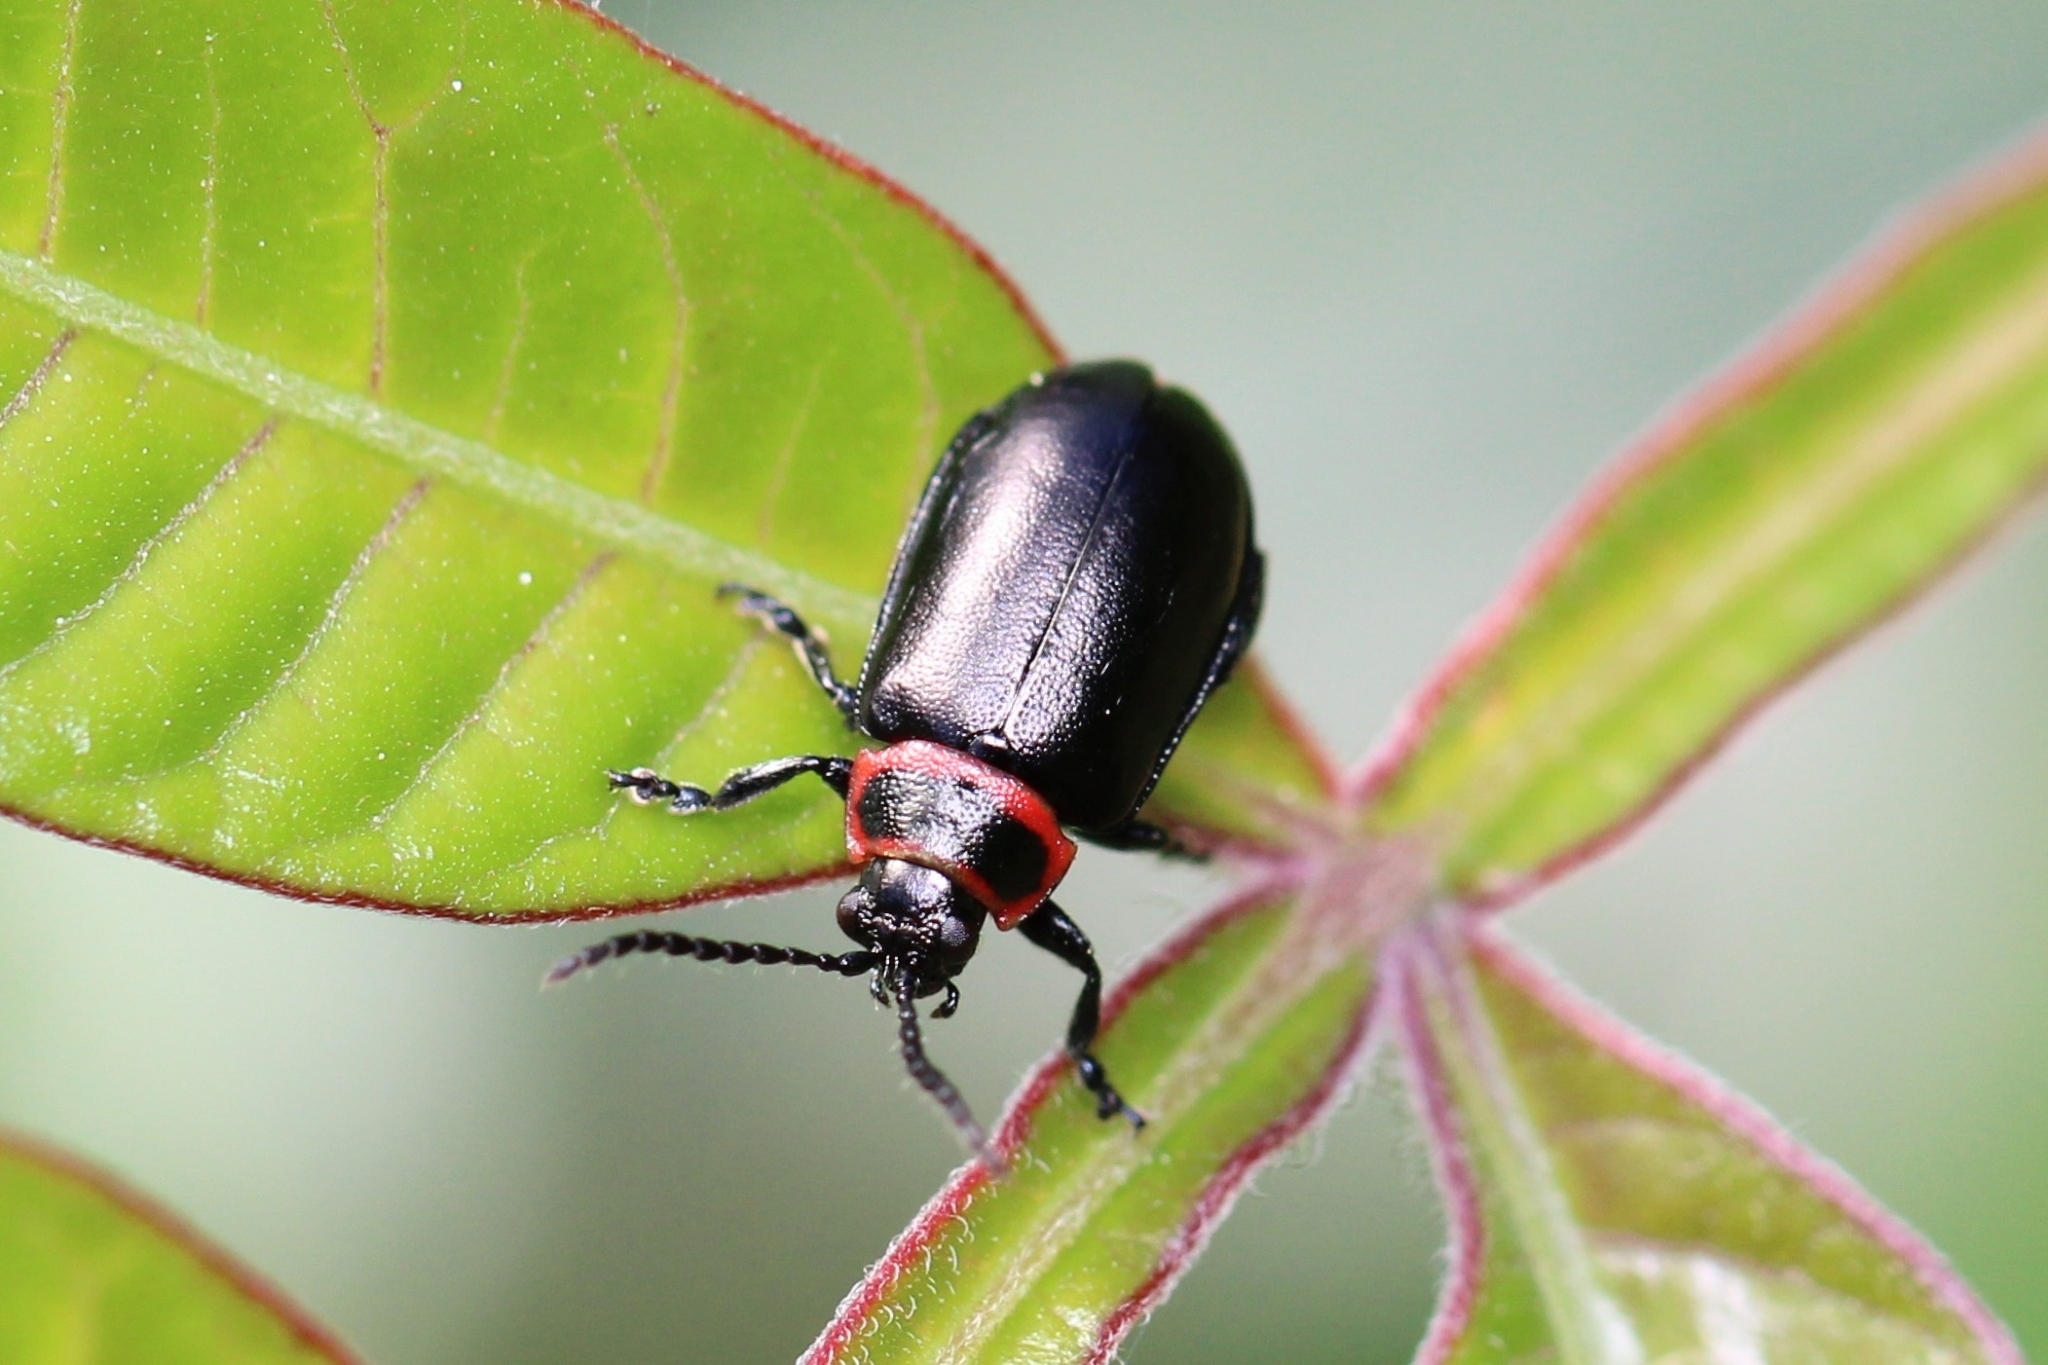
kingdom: Animalia
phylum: Arthropoda
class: Insecta
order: Coleoptera
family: Chrysomelidae
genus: Kuschelina
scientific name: Kuschelina vians
